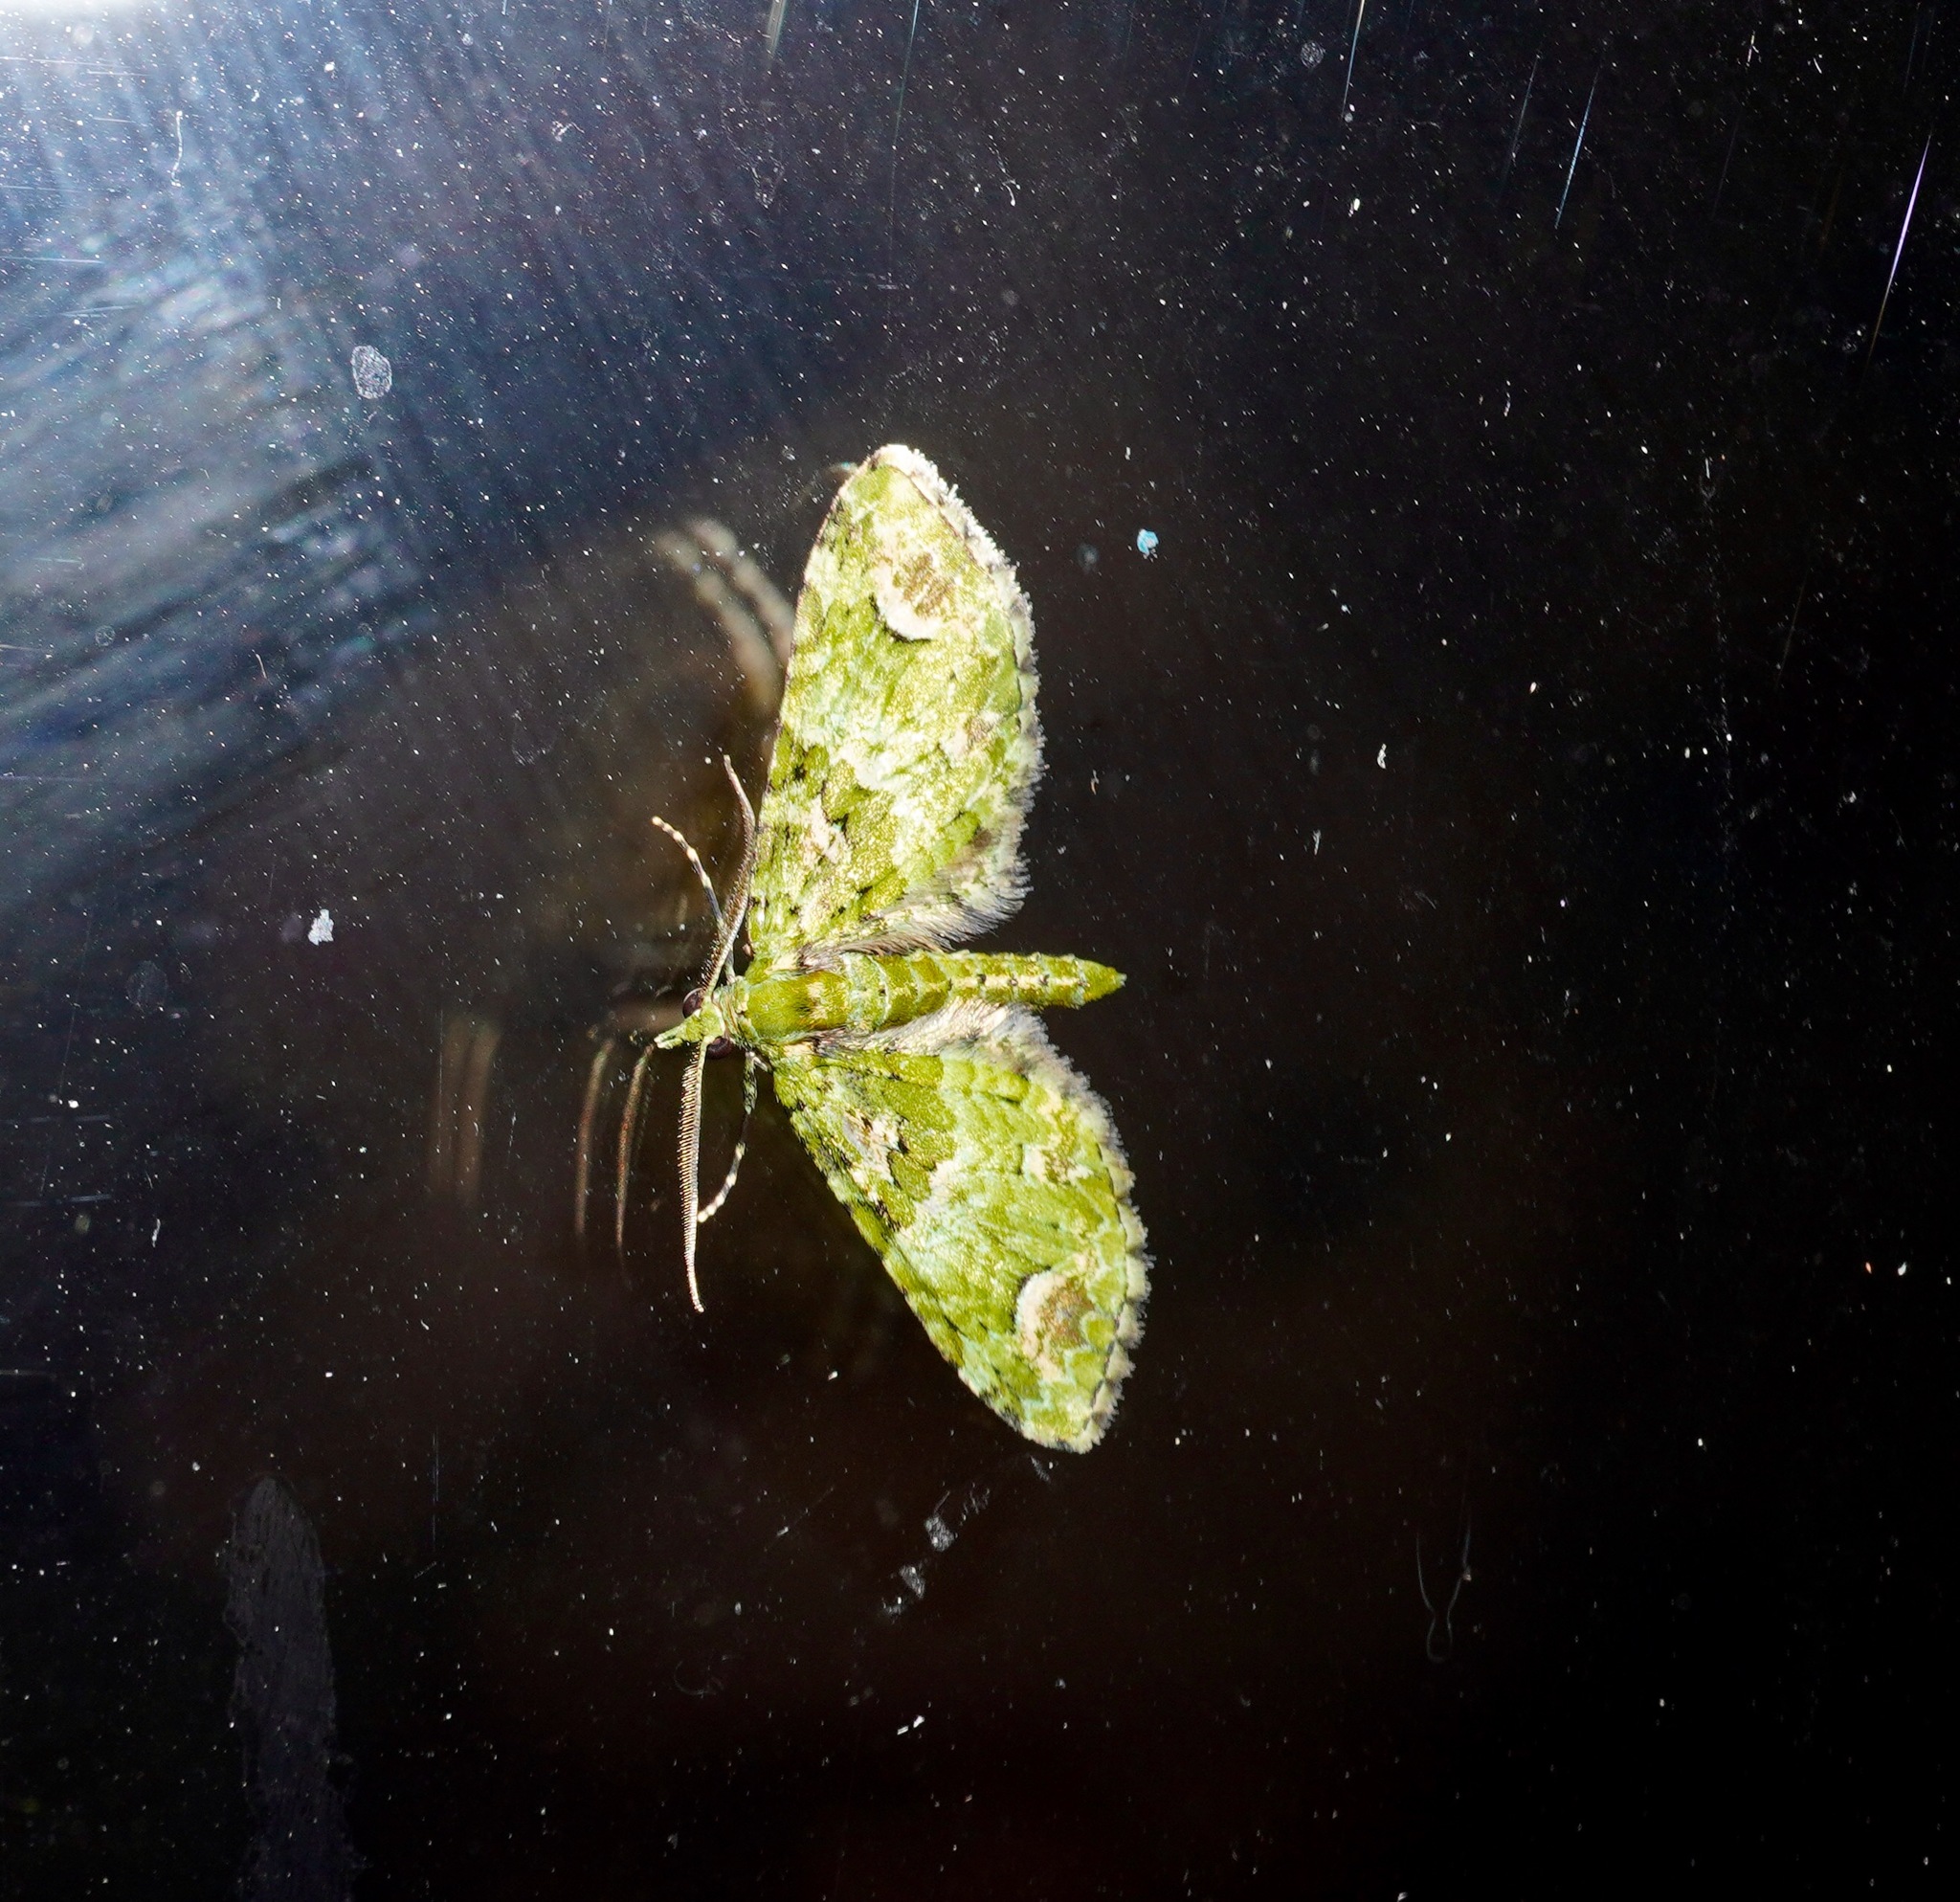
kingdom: Animalia
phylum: Arthropoda
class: Insecta
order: Lepidoptera
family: Geometridae
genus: Pasiphila
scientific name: Pasiphila semochlora
